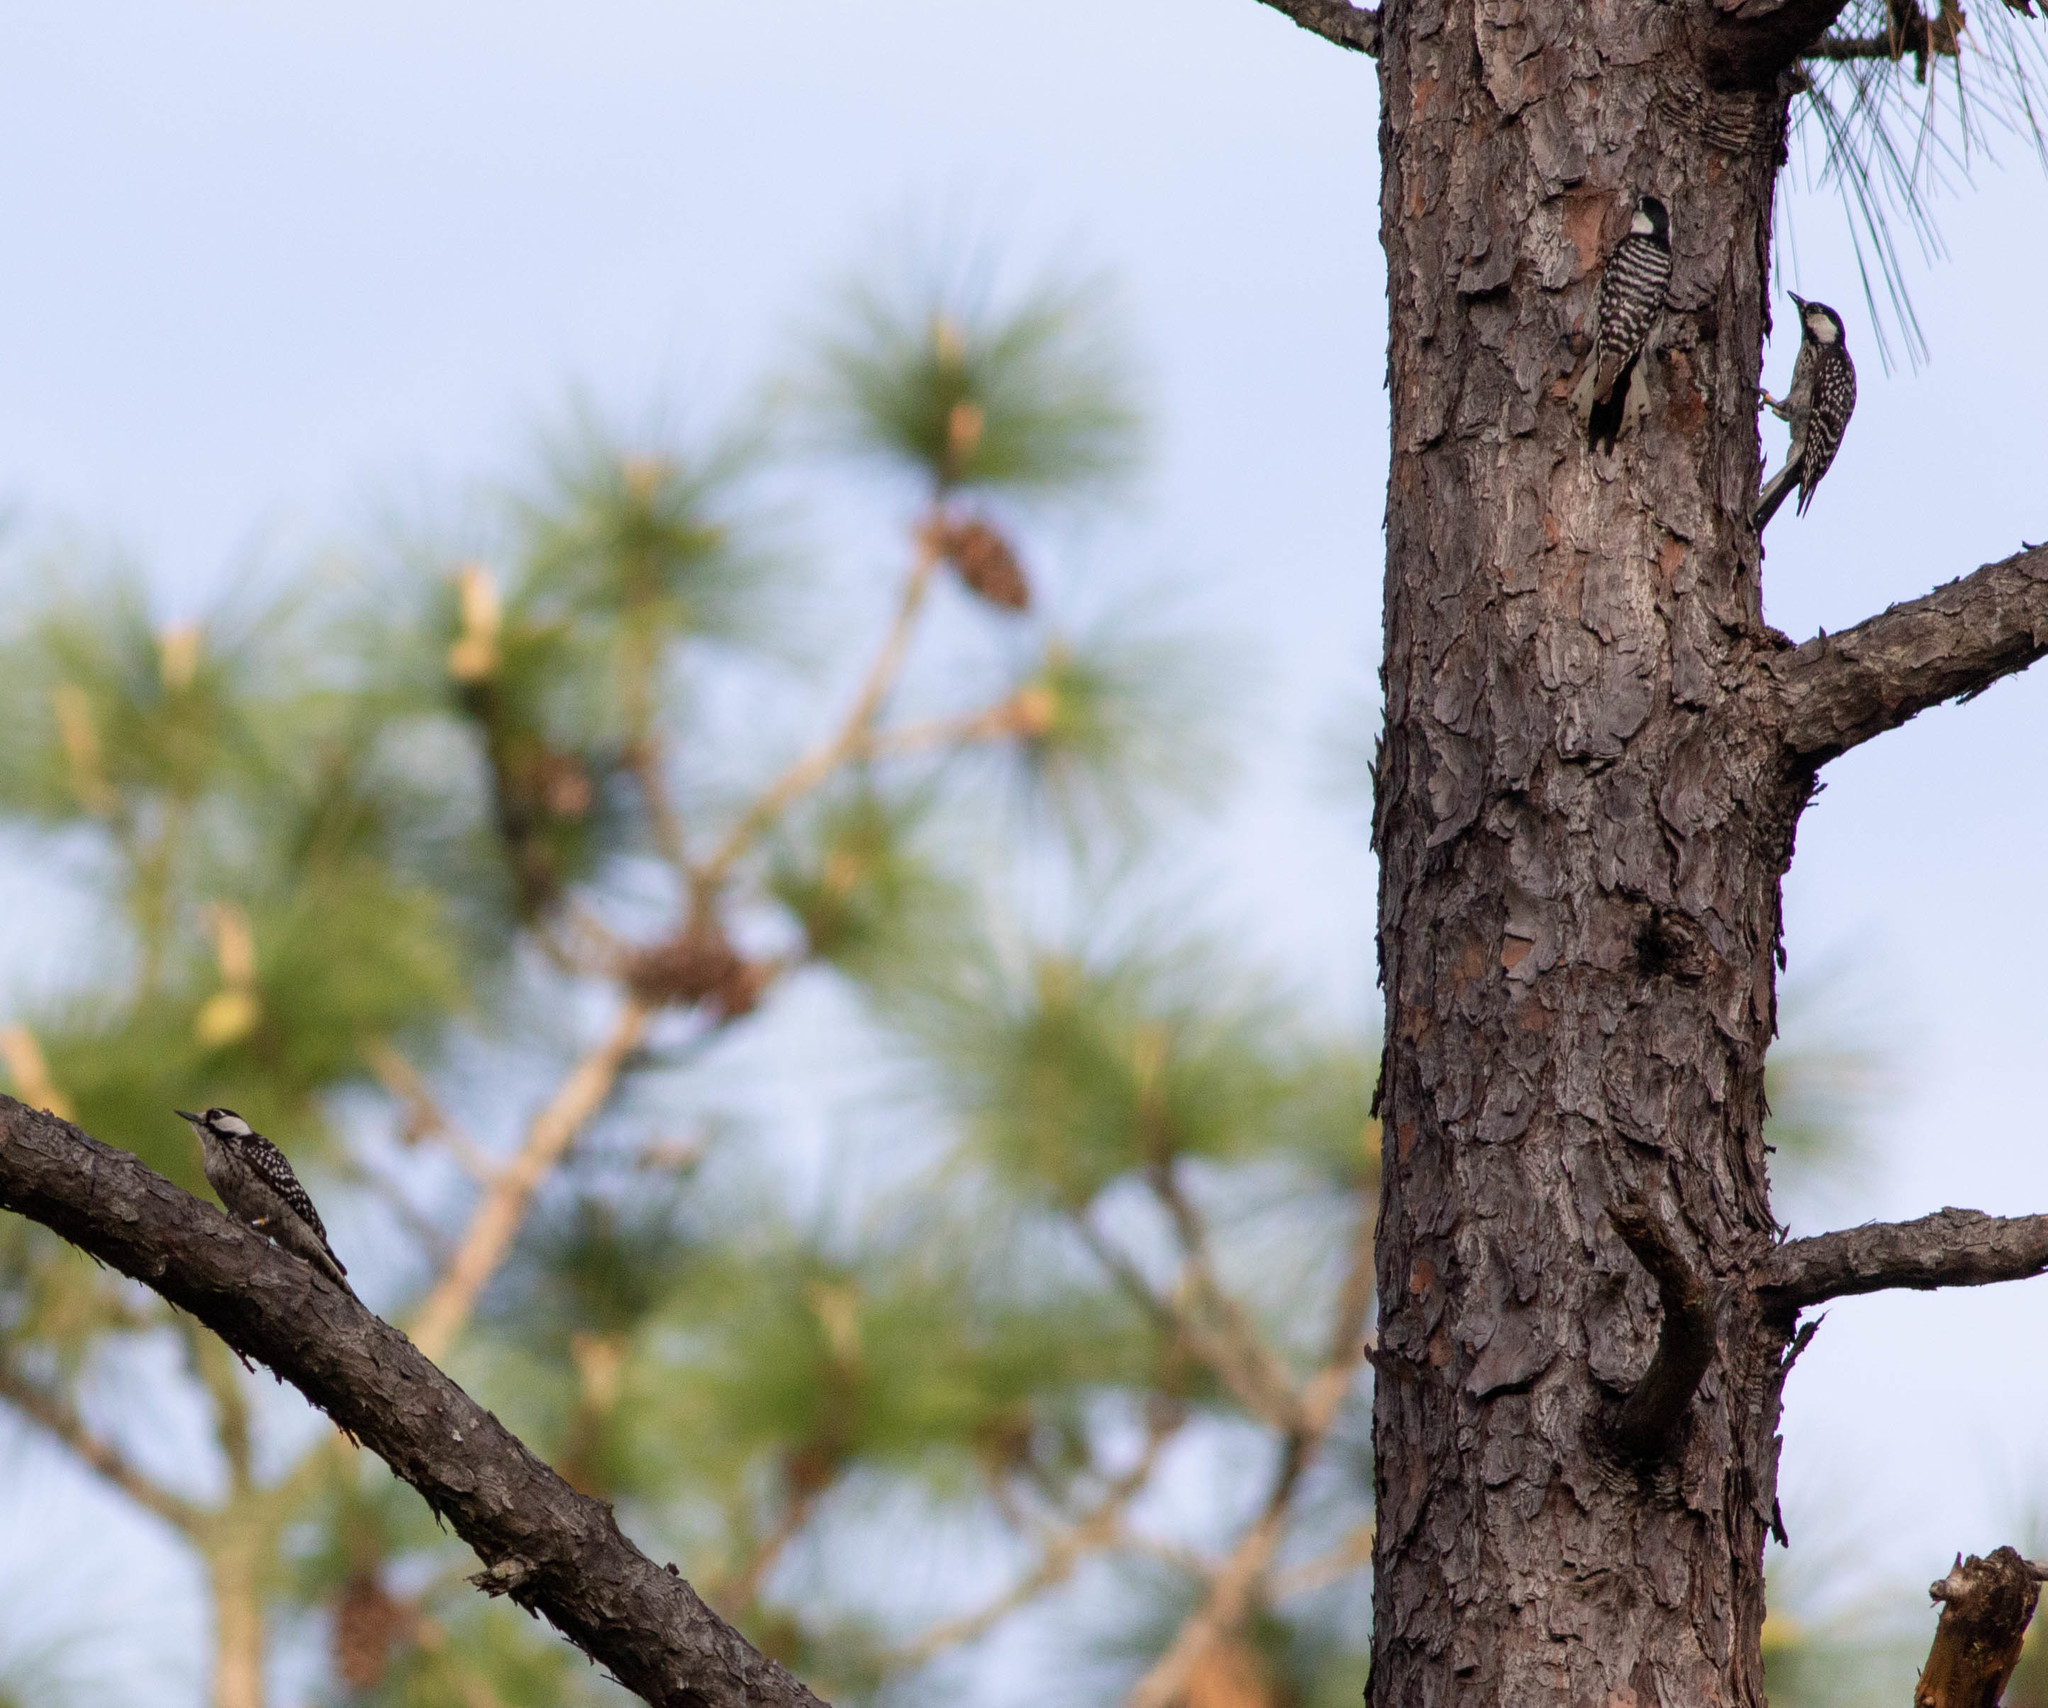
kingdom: Animalia
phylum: Chordata
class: Aves
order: Piciformes
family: Picidae
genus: Leuconotopicus
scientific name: Leuconotopicus borealis
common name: Red-cockaded woodpecker
